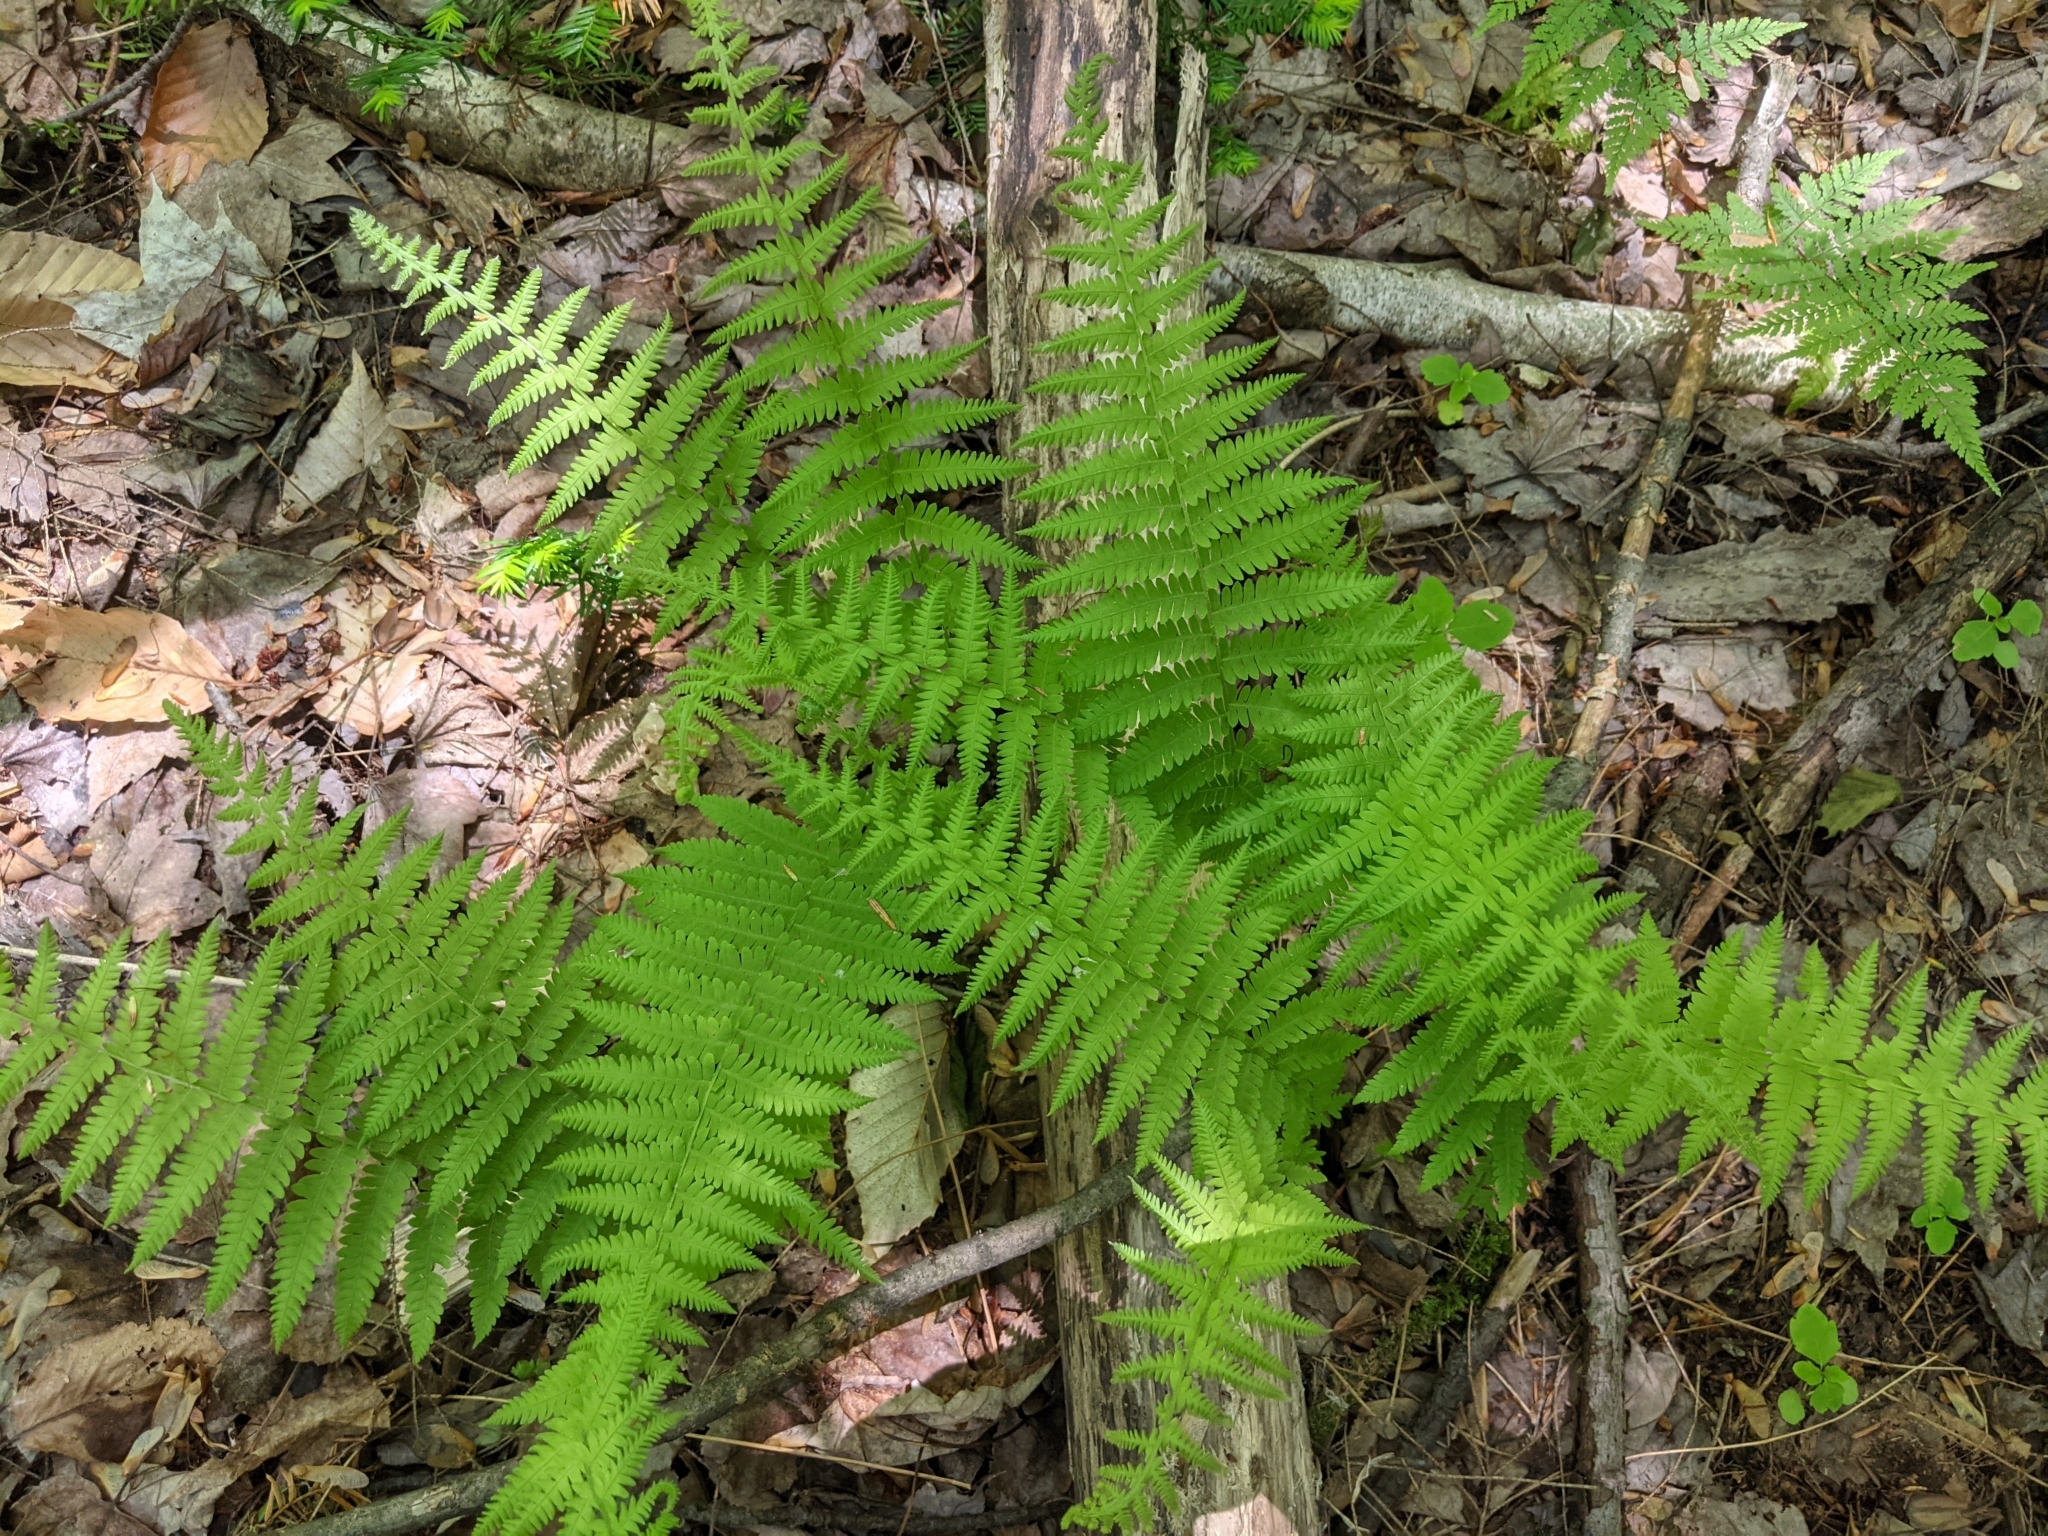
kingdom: Plantae
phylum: Tracheophyta
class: Polypodiopsida
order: Polypodiales
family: Thelypteridaceae
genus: Amauropelta
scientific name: Amauropelta noveboracensis
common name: New york fern
